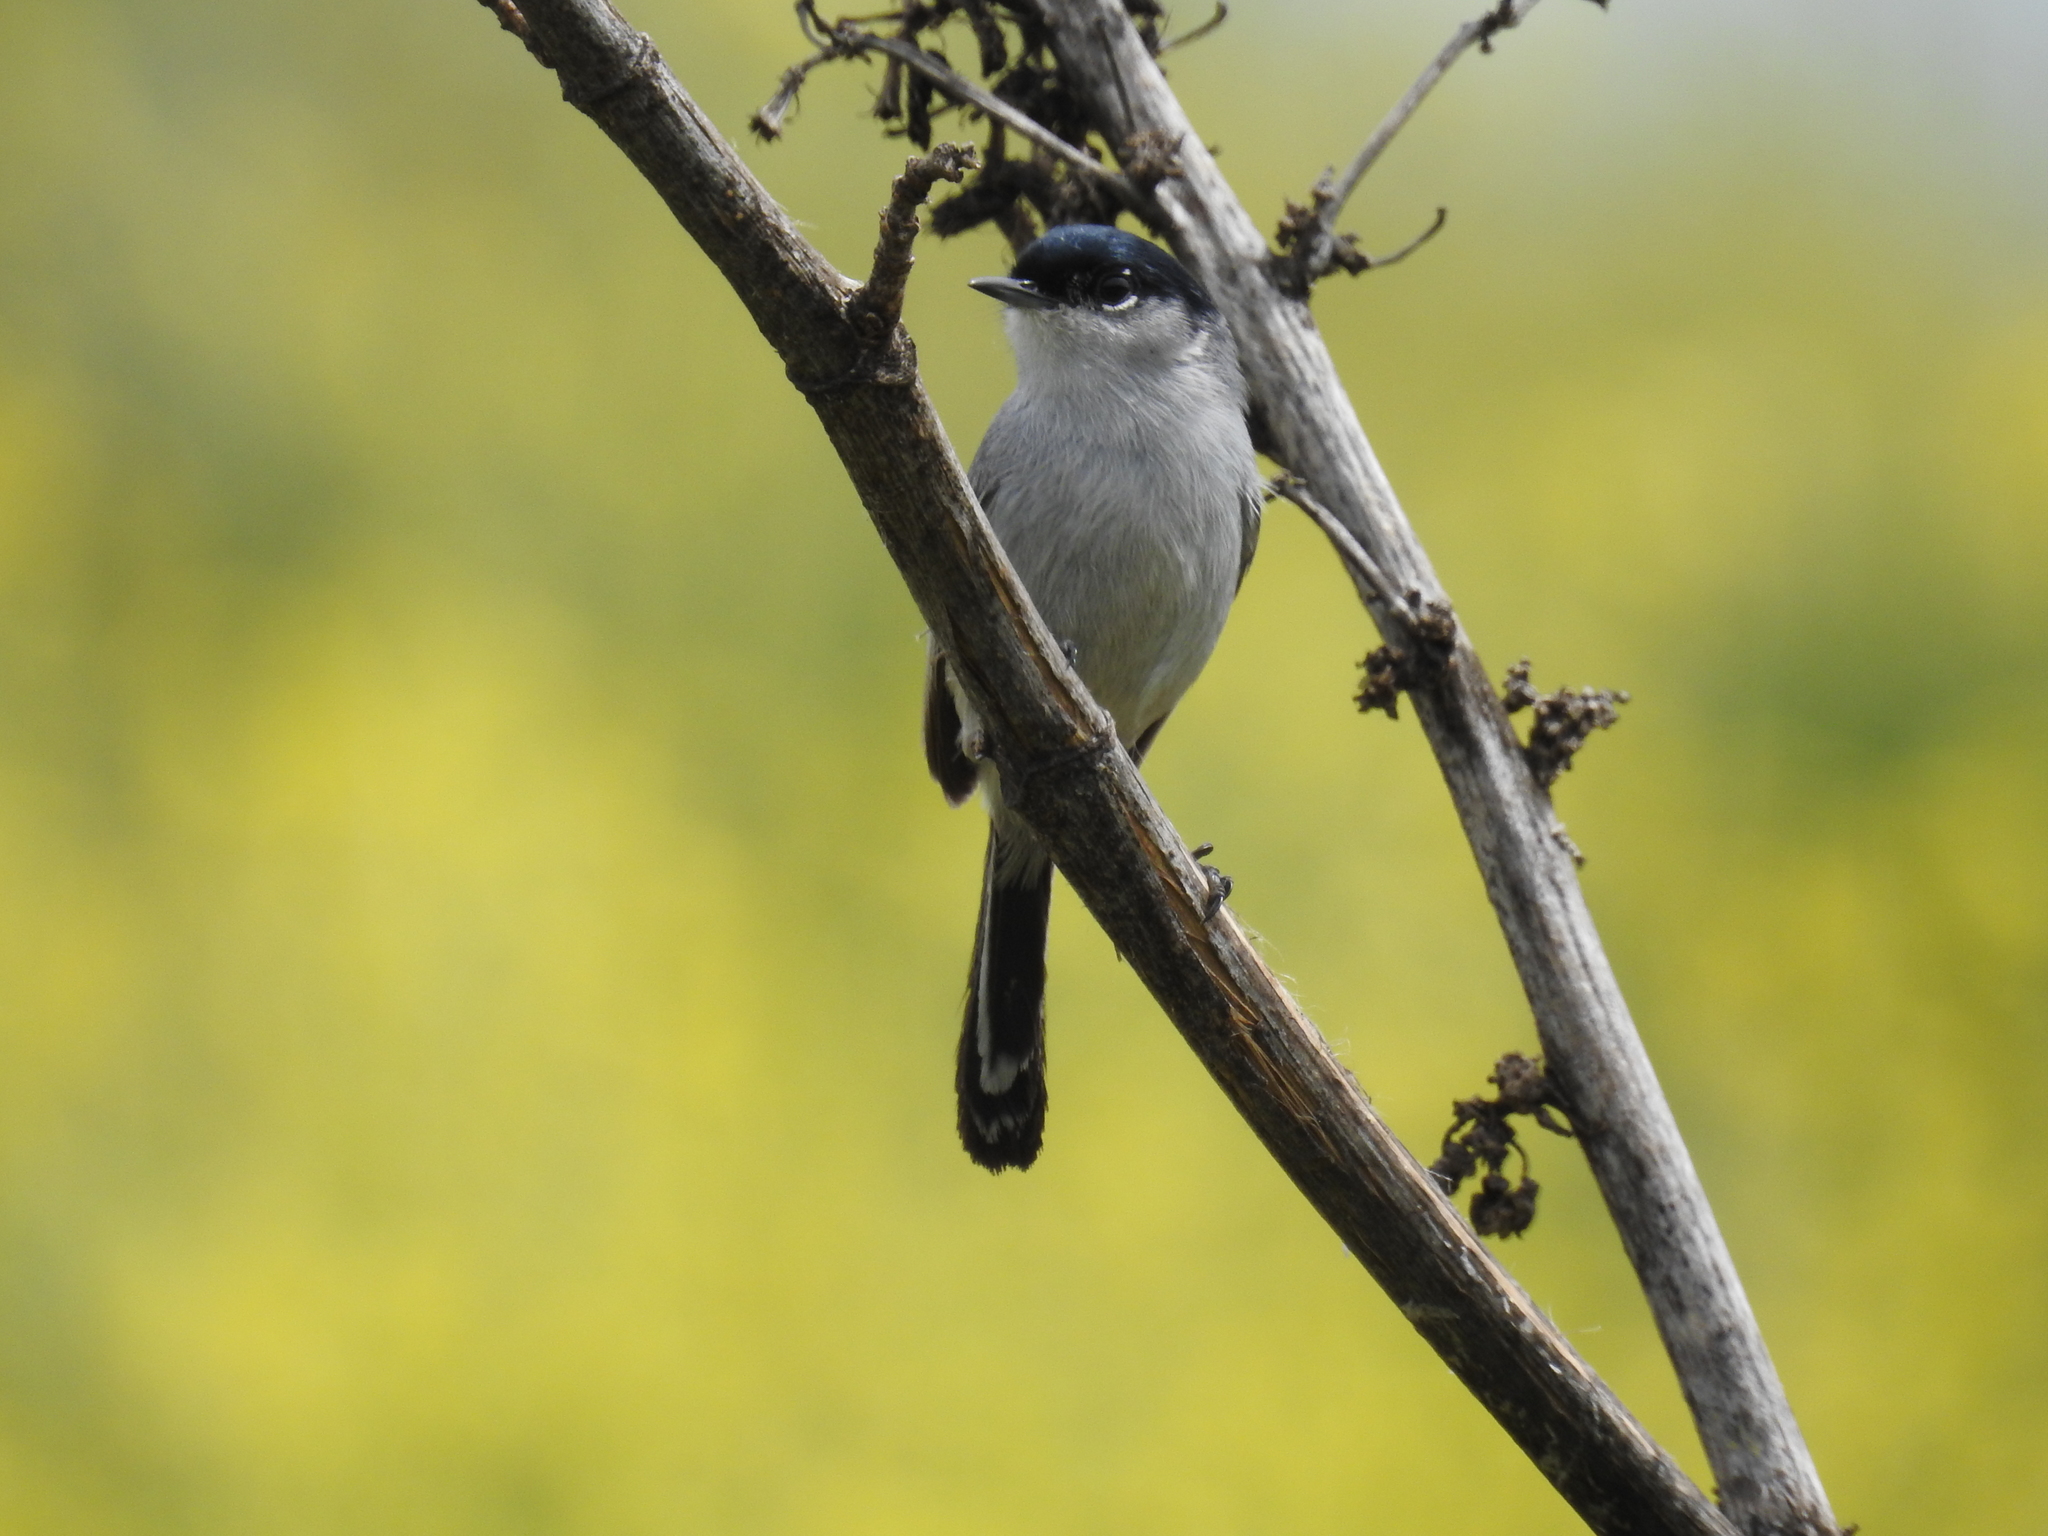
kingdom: Animalia
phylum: Chordata
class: Aves
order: Passeriformes
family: Polioptilidae
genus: Polioptila
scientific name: Polioptila californica
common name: California gnatcatcher
